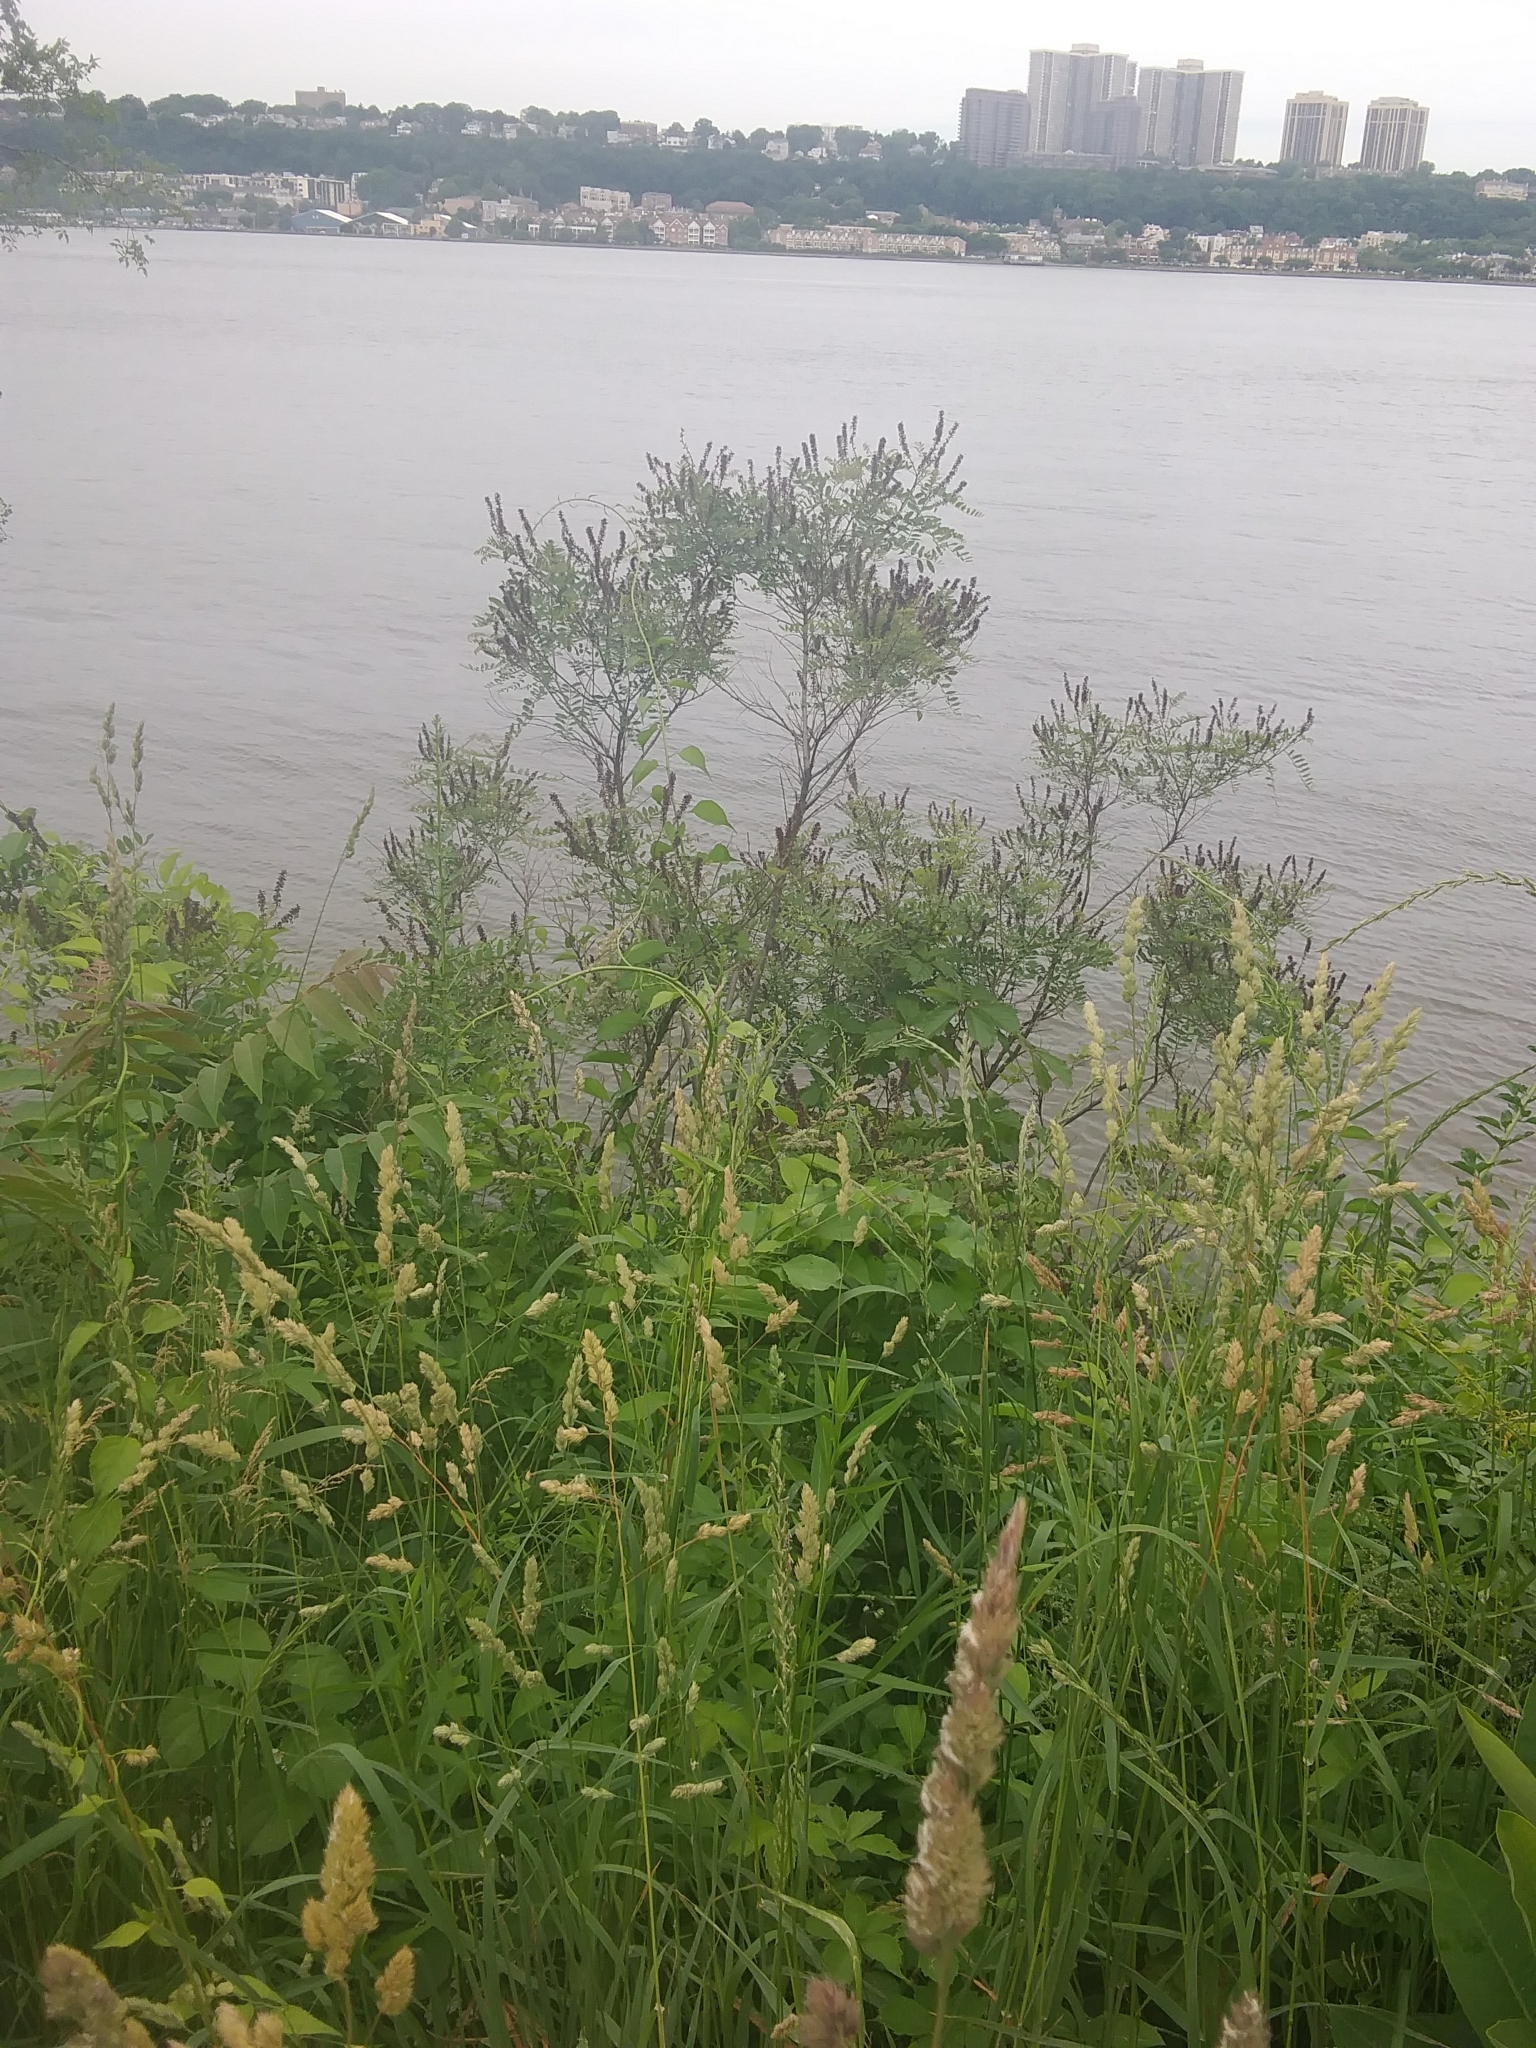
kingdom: Plantae
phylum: Tracheophyta
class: Magnoliopsida
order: Fabales
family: Fabaceae
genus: Amorpha
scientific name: Amorpha fruticosa
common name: False indigo
